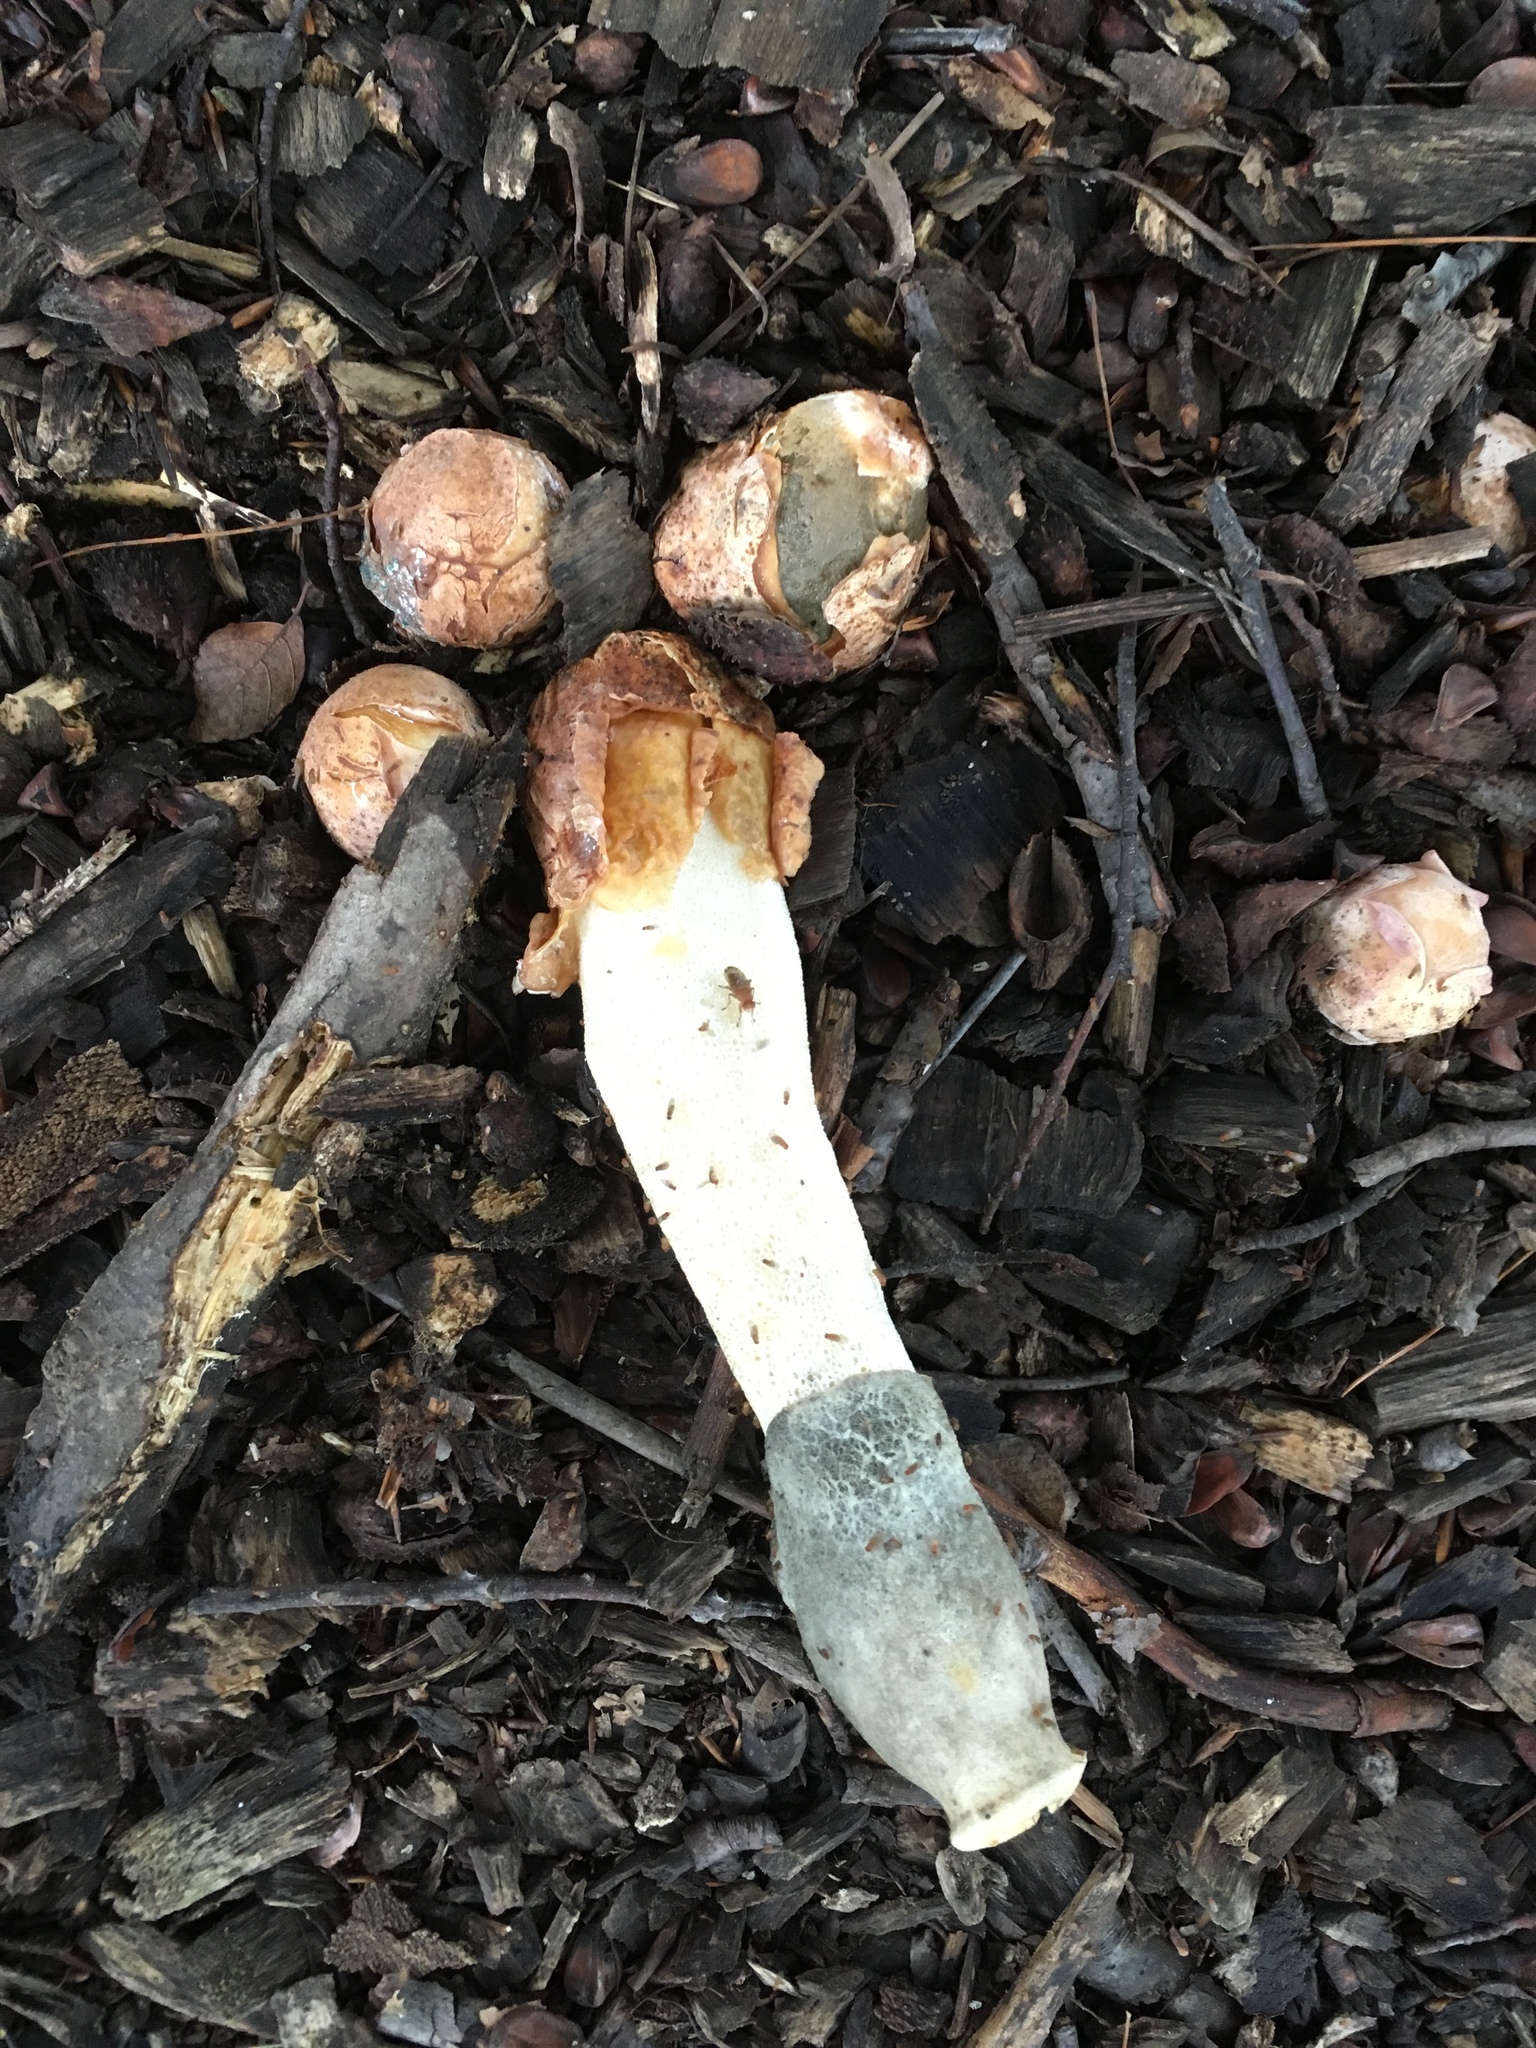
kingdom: Fungi
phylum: Basidiomycota
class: Agaricomycetes
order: Phallales
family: Phallaceae
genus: Phallus
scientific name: Phallus ravenelii
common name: Ravenel's stinkhorn
